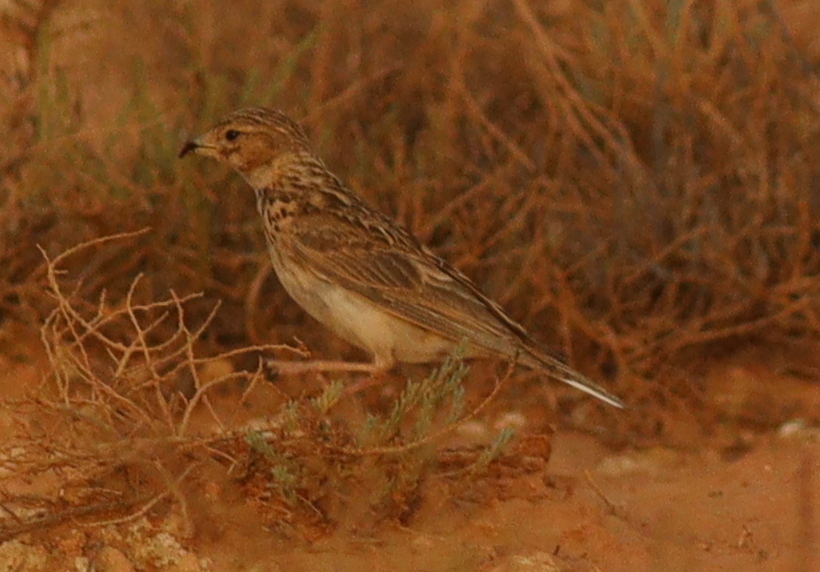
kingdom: Animalia
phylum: Chordata
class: Aves
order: Passeriformes
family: Alaudidae
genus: Calandrella
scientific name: Calandrella rufescens
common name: Lesser short-toed lark
